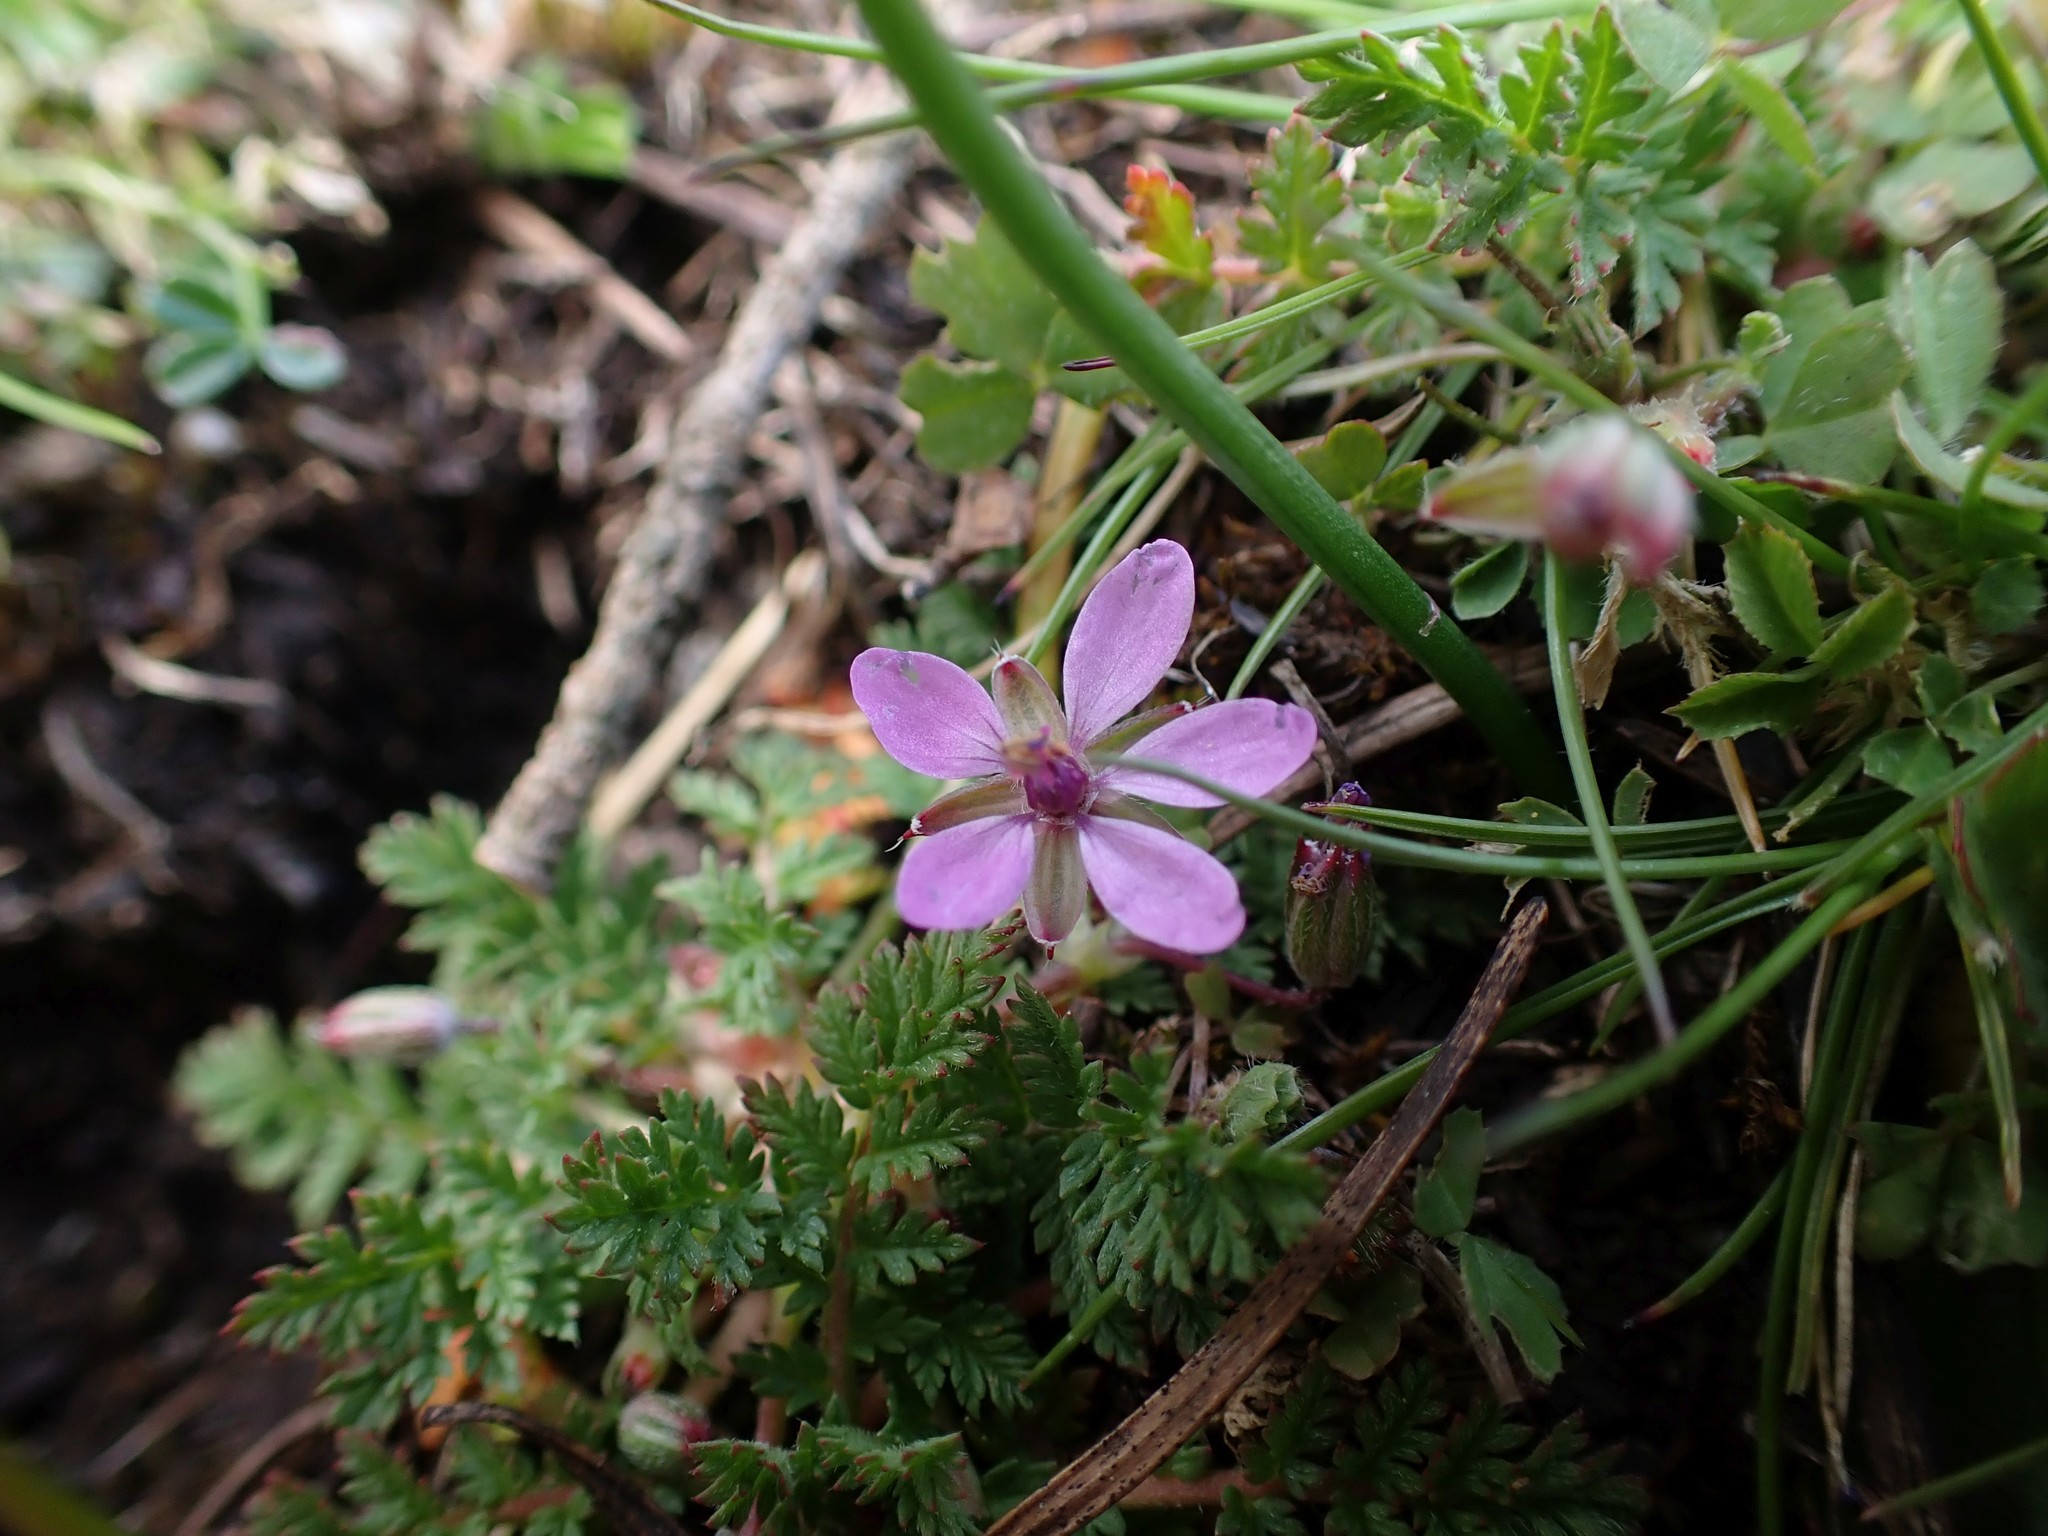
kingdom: Plantae
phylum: Tracheophyta
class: Magnoliopsida
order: Geraniales
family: Geraniaceae
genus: Erodium
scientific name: Erodium cicutarium
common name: Common stork's-bill
